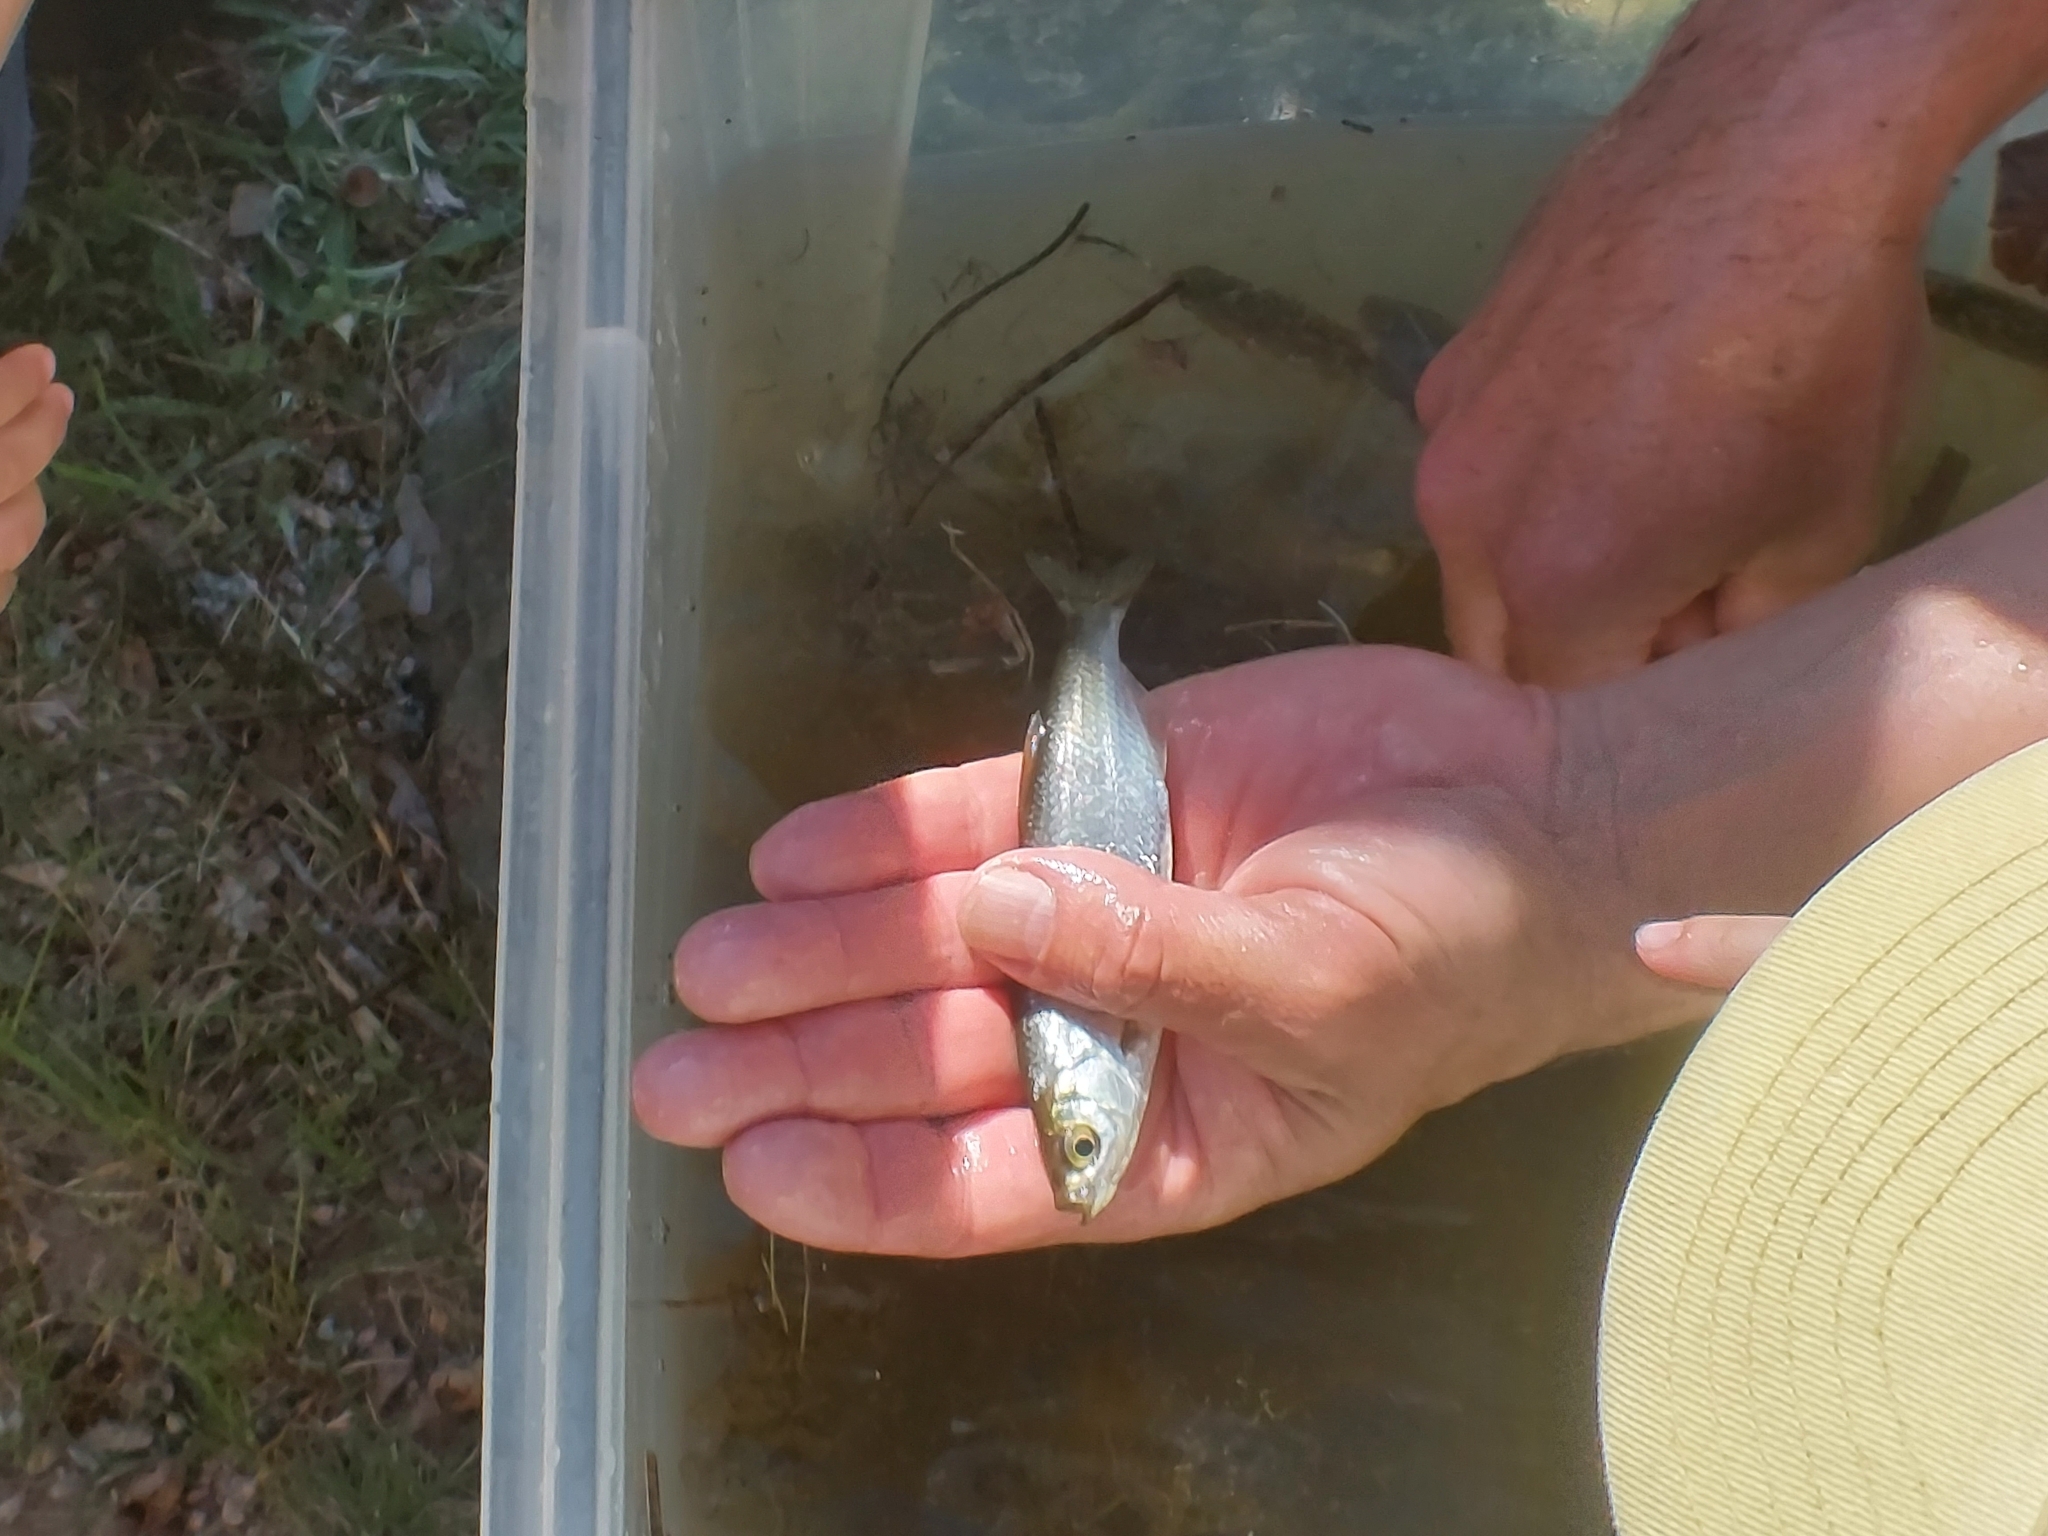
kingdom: Animalia
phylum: Chordata
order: Cypriniformes
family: Cyprinidae
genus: Alburnus
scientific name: Alburnus alburnus
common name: Bleak
